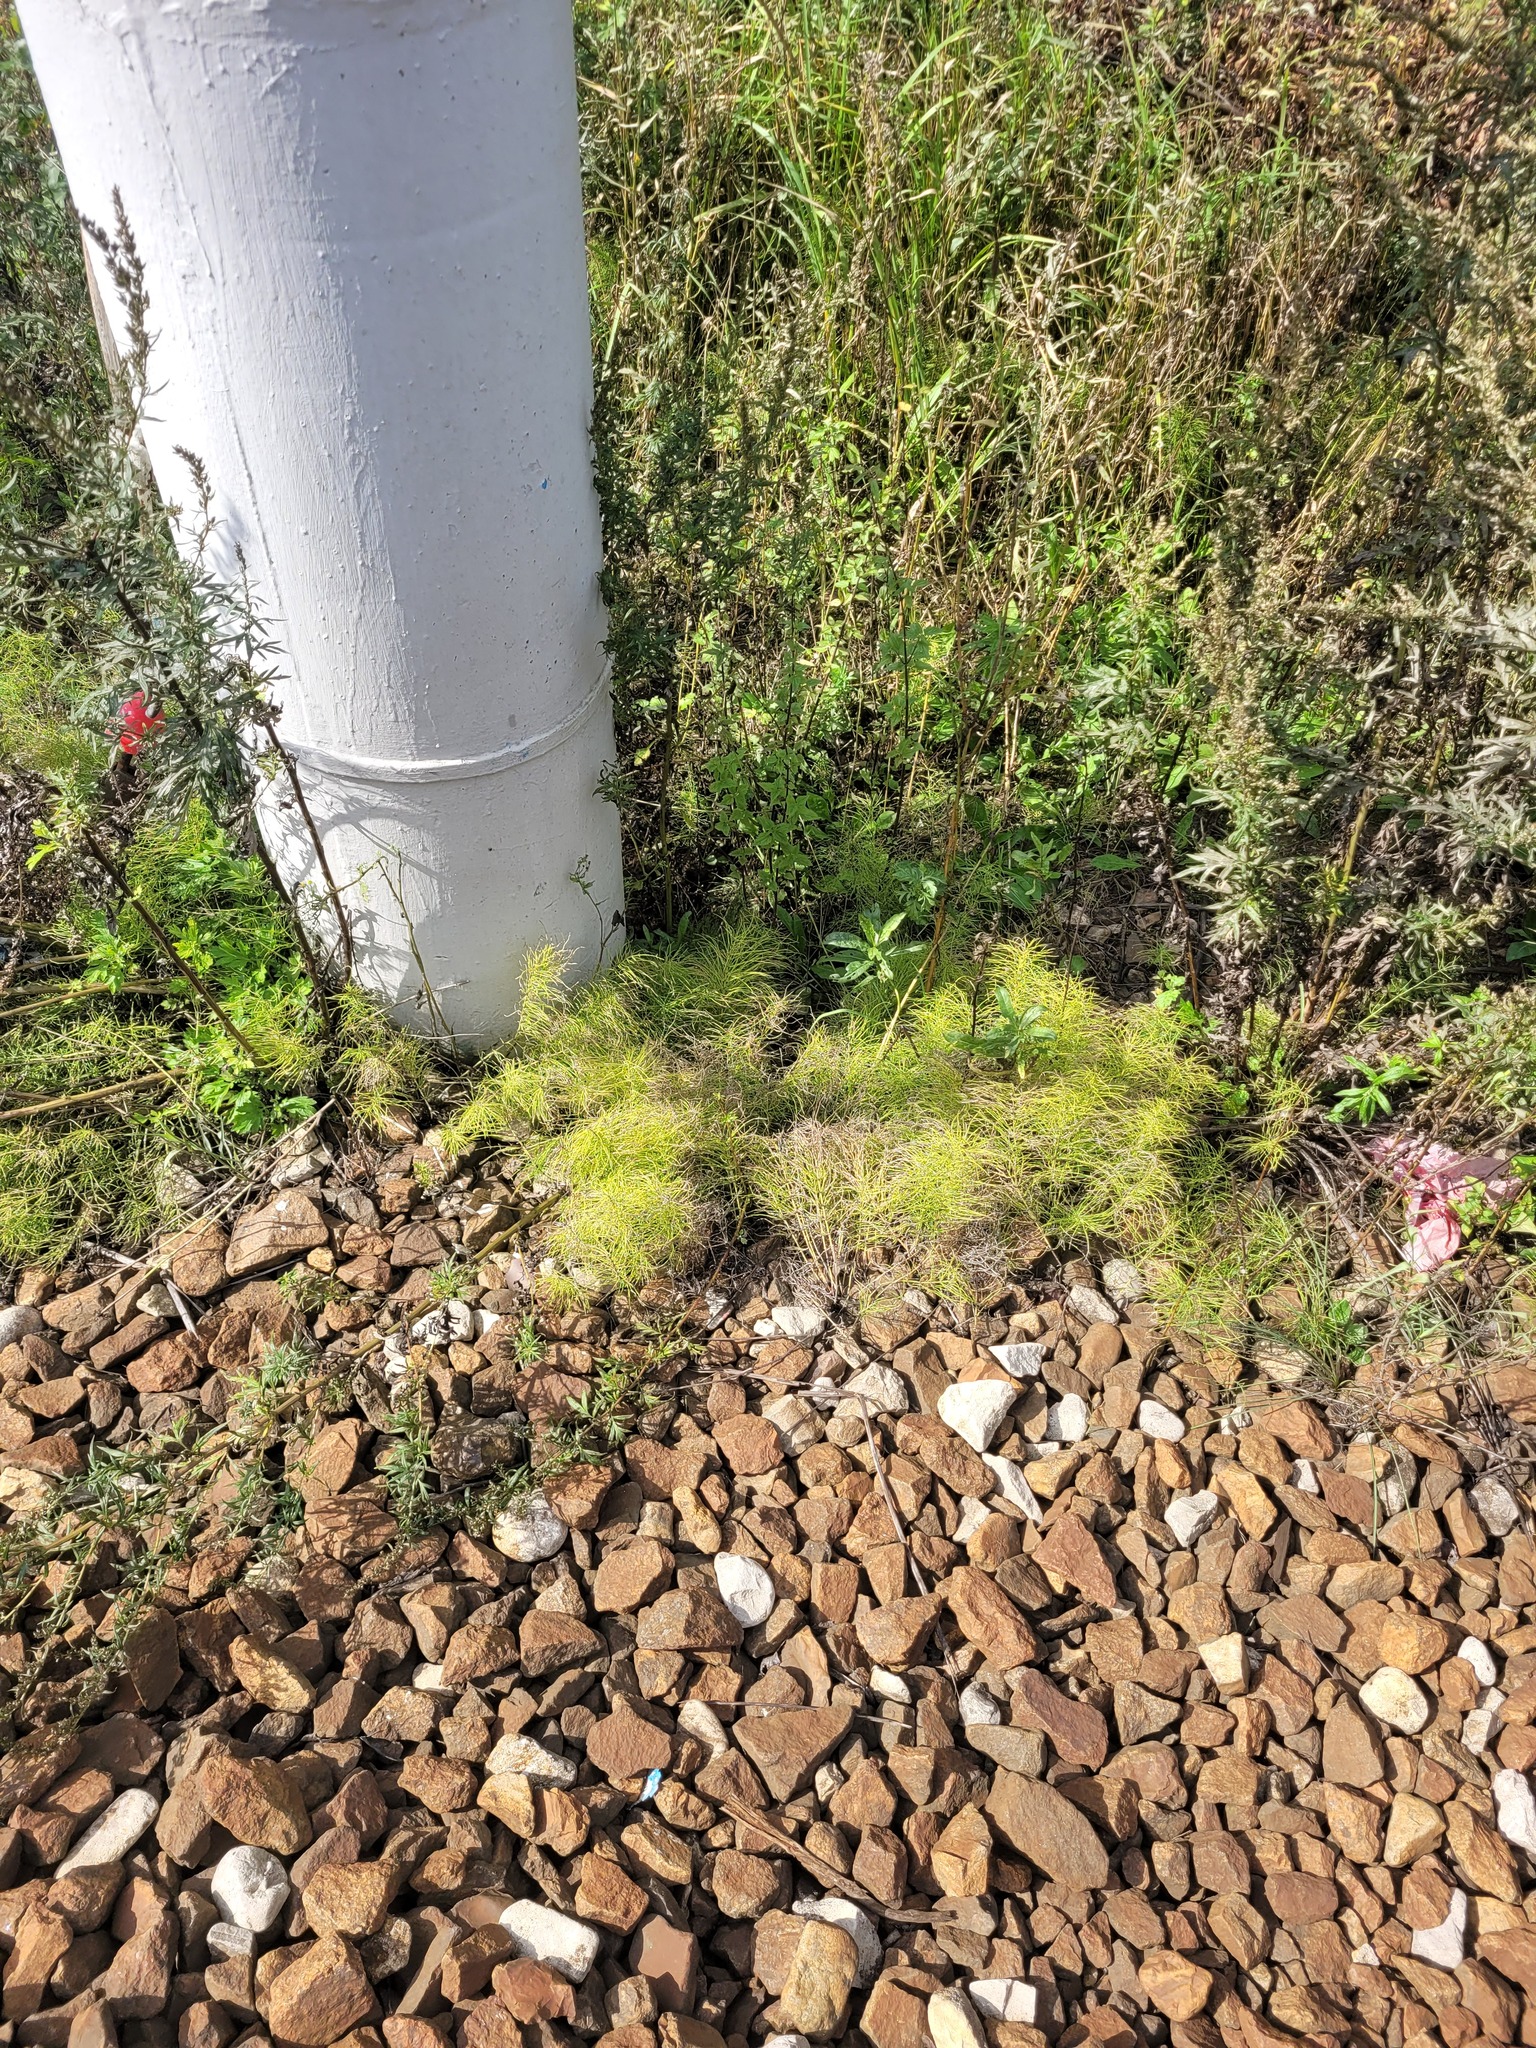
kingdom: Plantae
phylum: Tracheophyta
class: Polypodiopsida
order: Equisetales
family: Equisetaceae
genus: Equisetum
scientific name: Equisetum pratense
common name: Meadow horsetail
